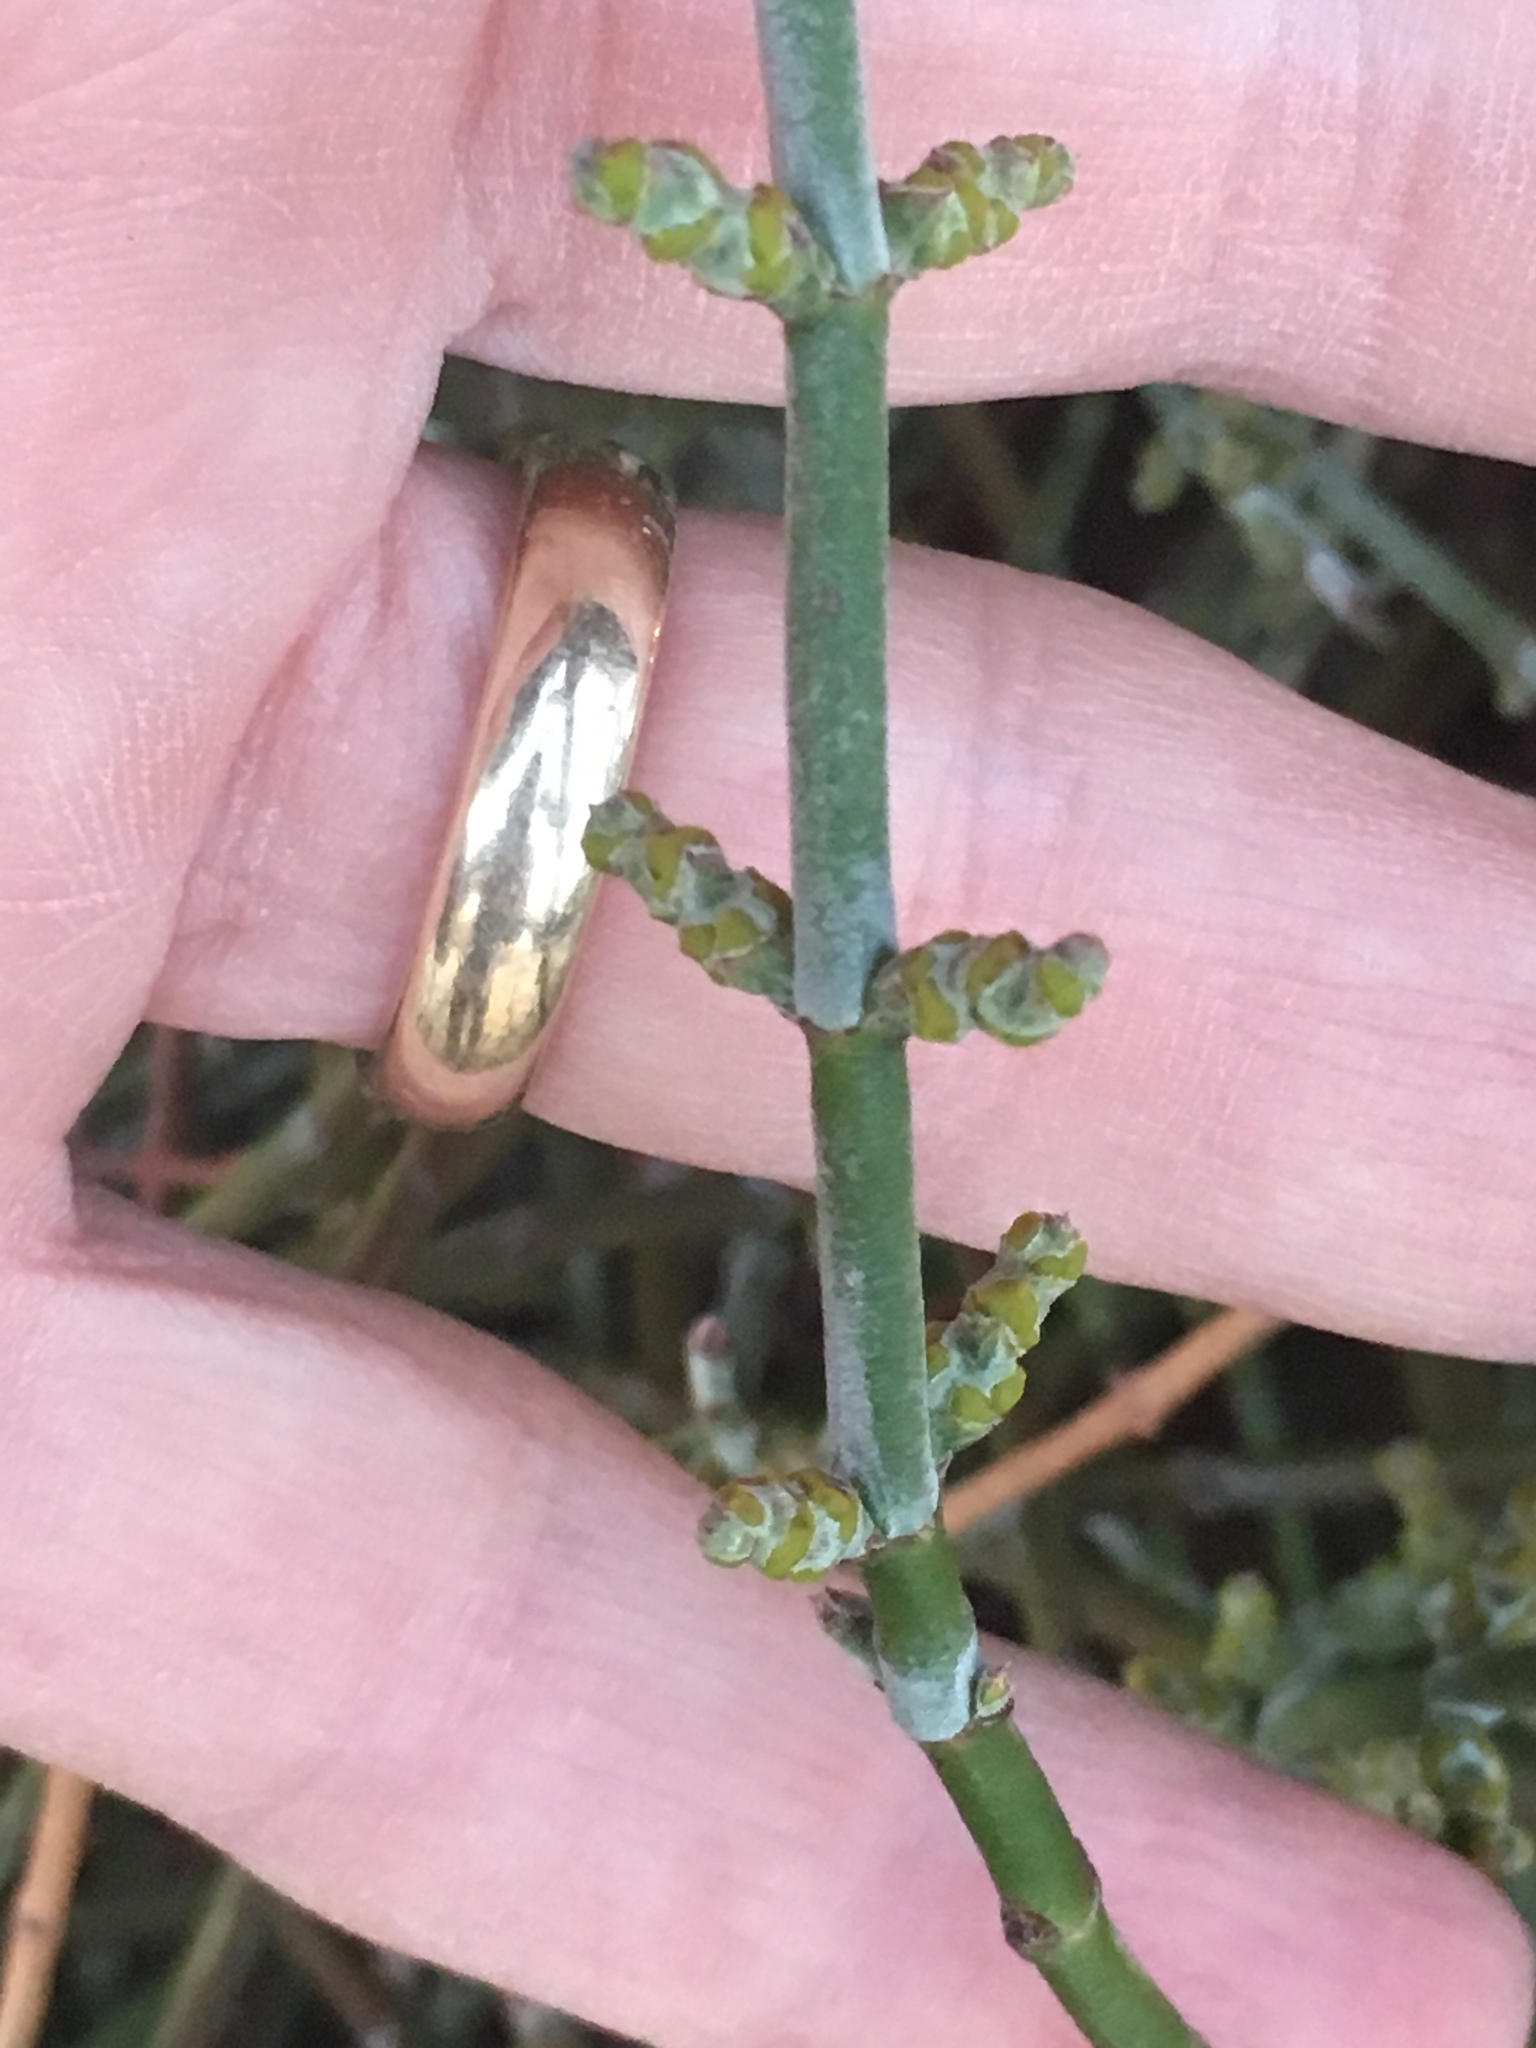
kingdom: Plantae
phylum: Tracheophyta
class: Magnoliopsida
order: Santalales
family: Viscaceae
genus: Phoradendron
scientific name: Phoradendron californicum
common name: Acacia mistletoe
